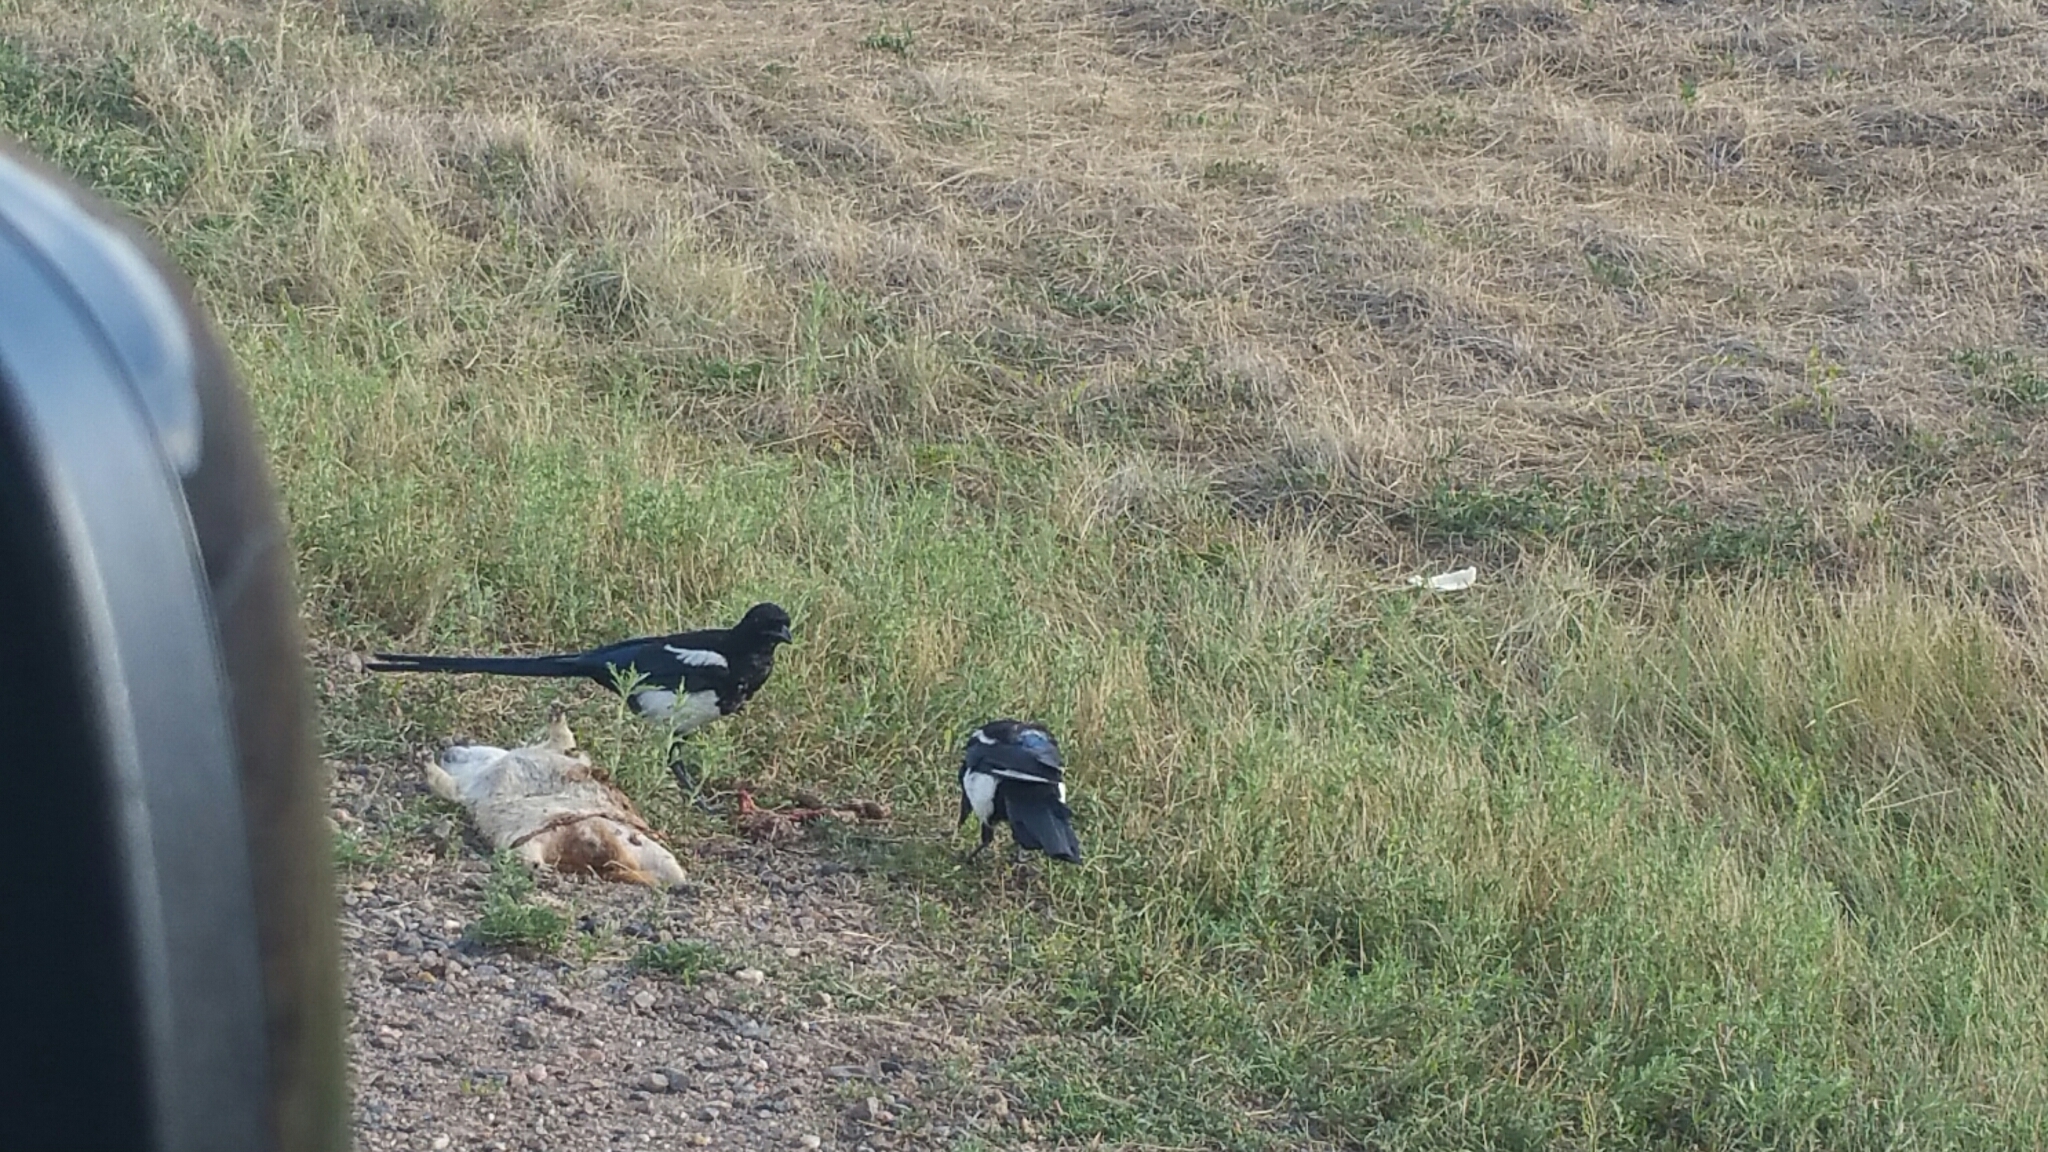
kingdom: Animalia
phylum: Chordata
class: Aves
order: Passeriformes
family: Corvidae
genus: Pica
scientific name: Pica hudsonia
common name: Black-billed magpie
